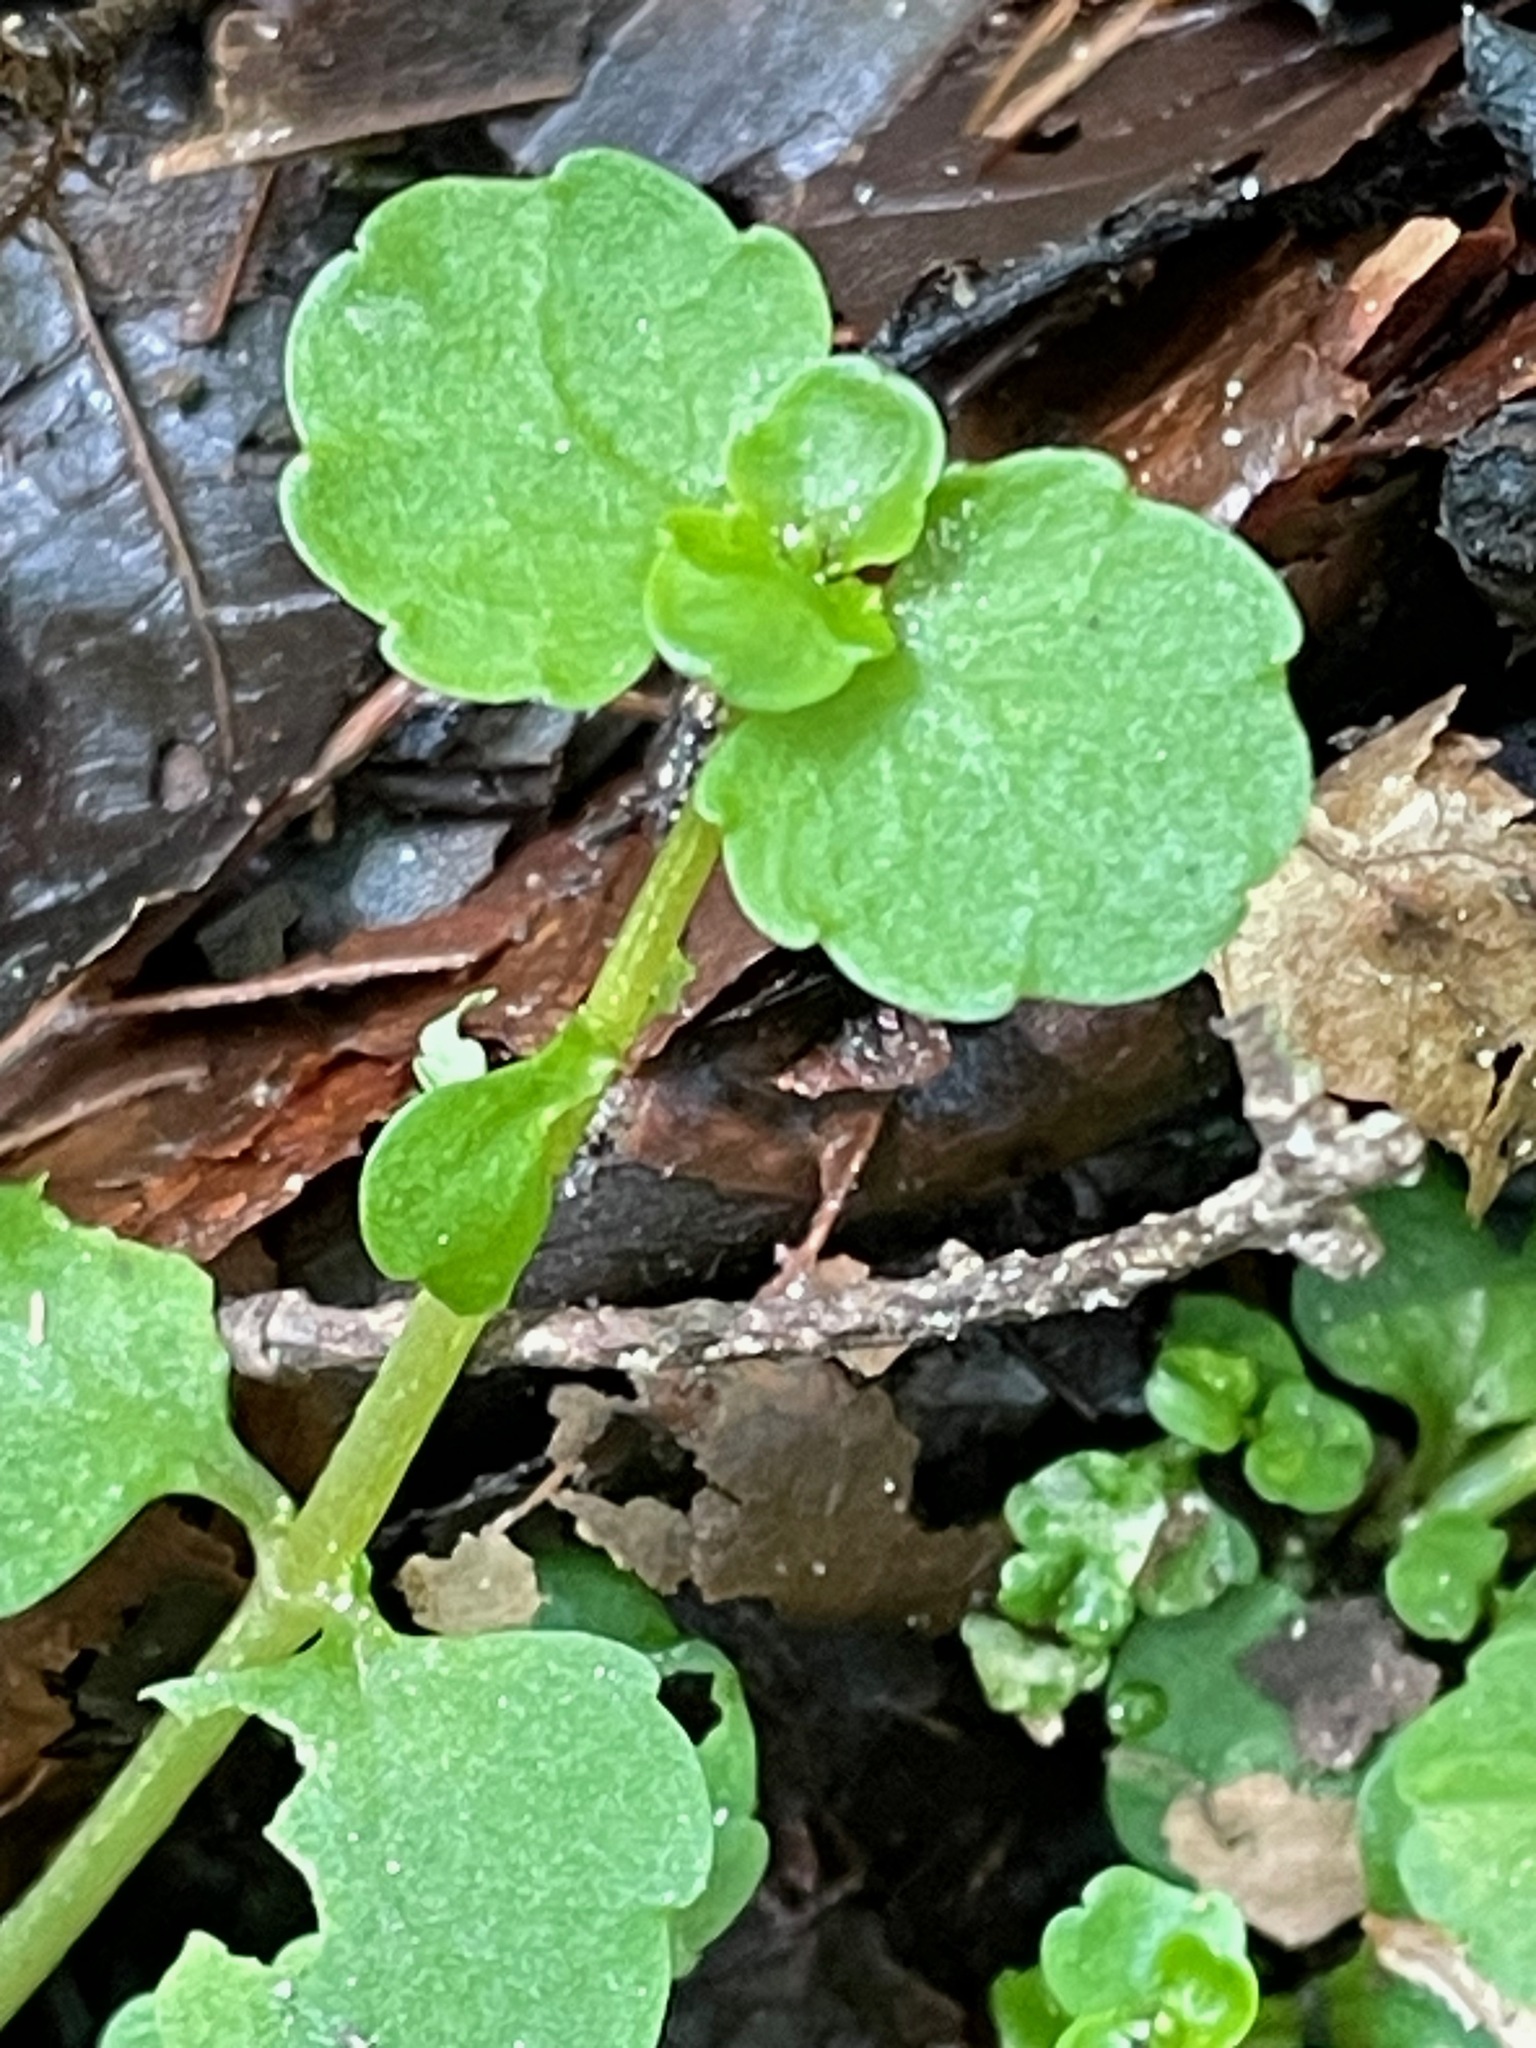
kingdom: Plantae
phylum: Tracheophyta
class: Magnoliopsida
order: Saxifragales
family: Saxifragaceae
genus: Chrysosplenium
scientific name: Chrysosplenium americanum
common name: American golden-saxifrage
